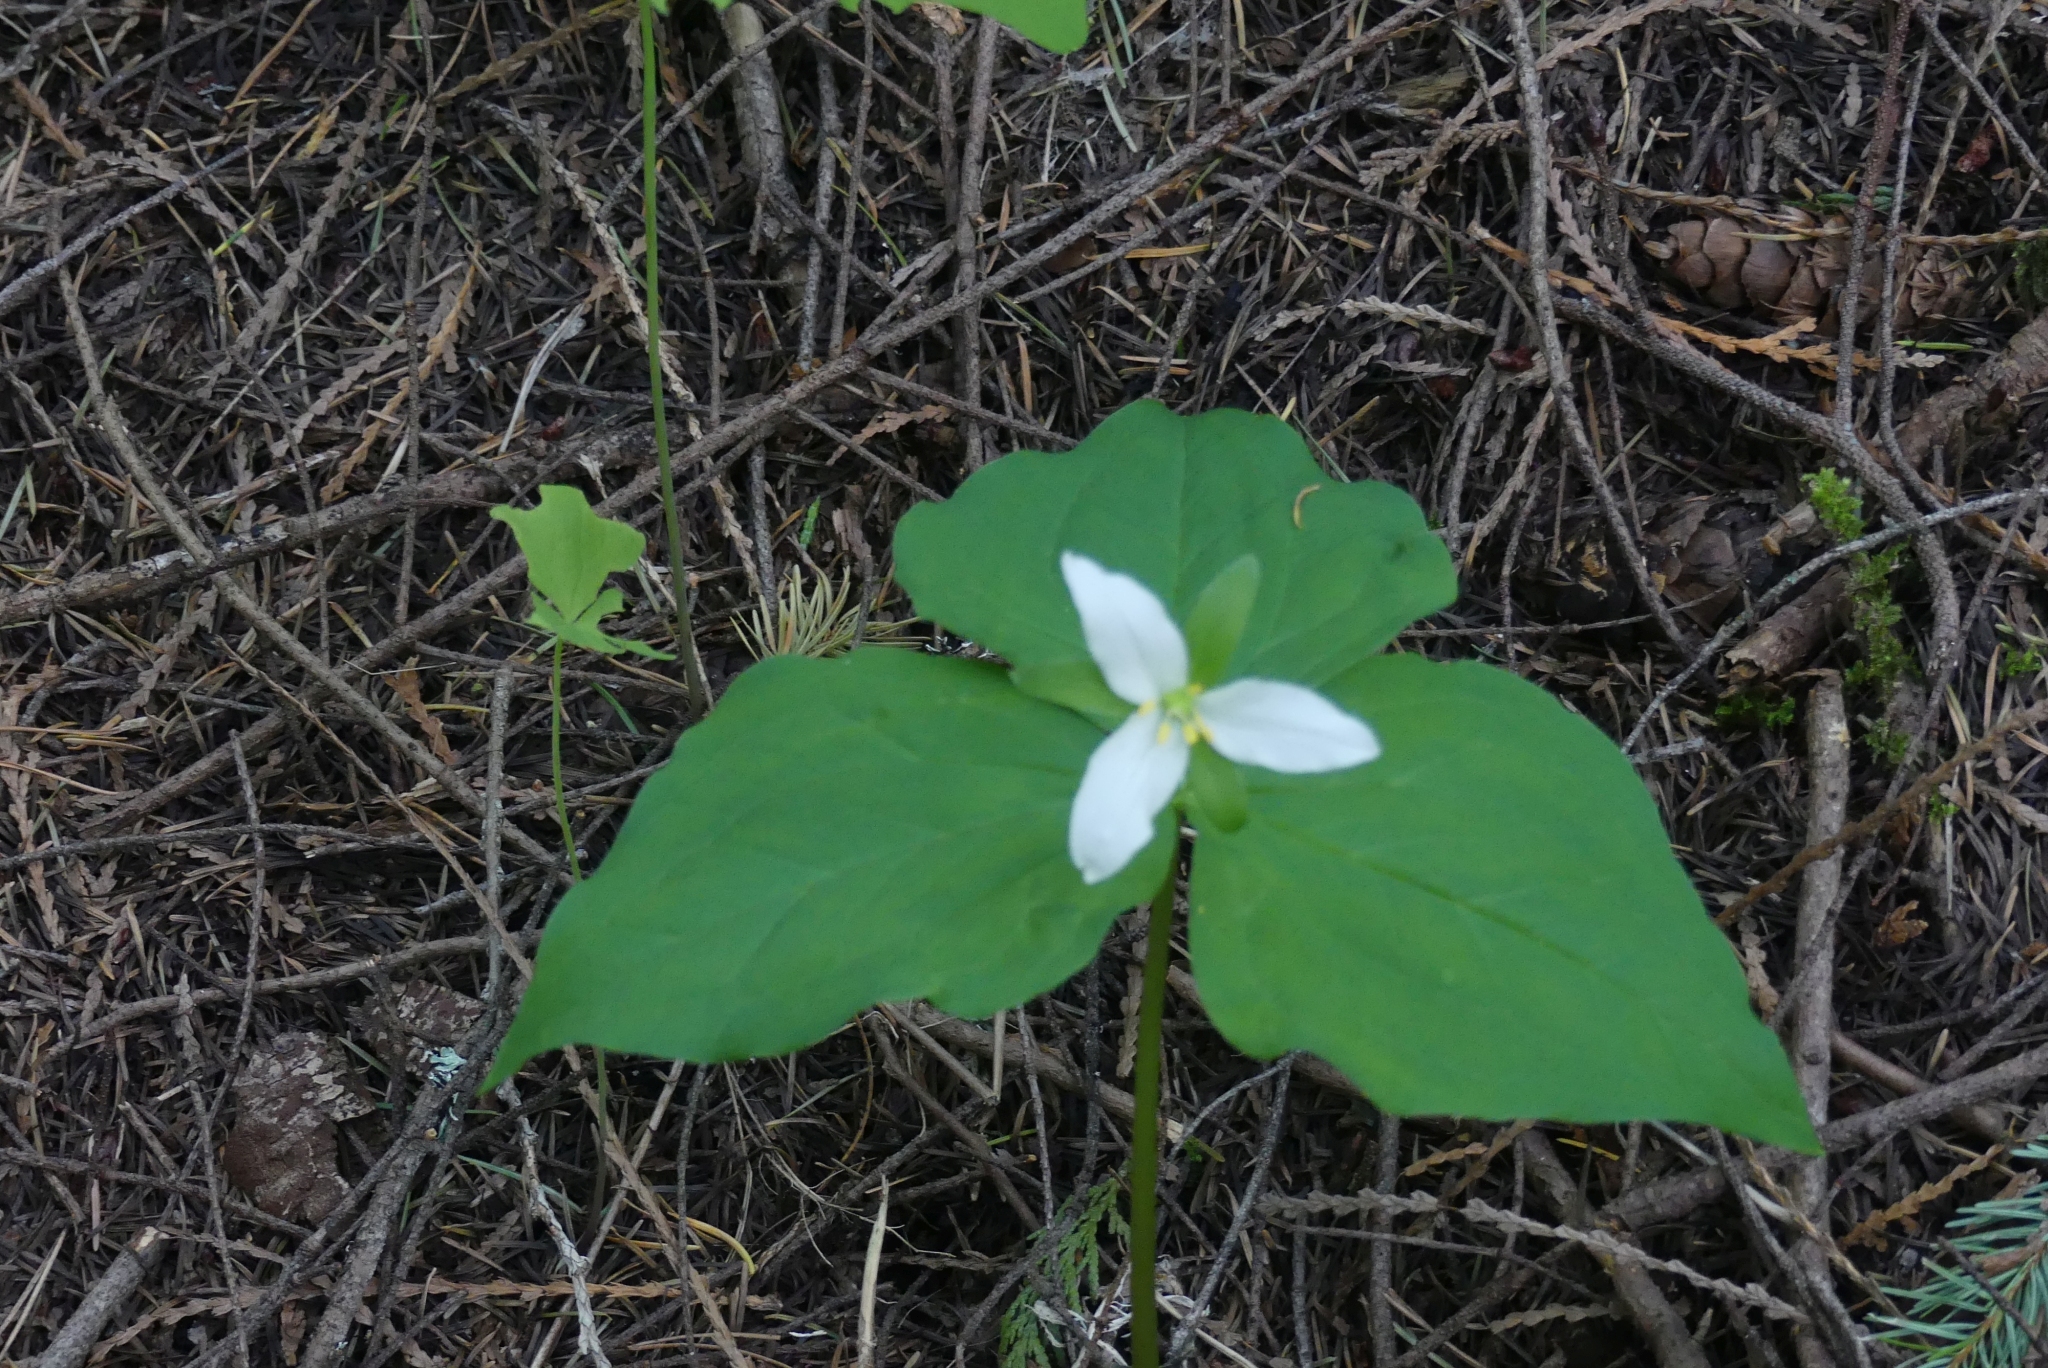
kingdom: Plantae
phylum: Tracheophyta
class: Liliopsida
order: Liliales
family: Melanthiaceae
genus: Trillium
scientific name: Trillium ovatum
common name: Pacific trillium
